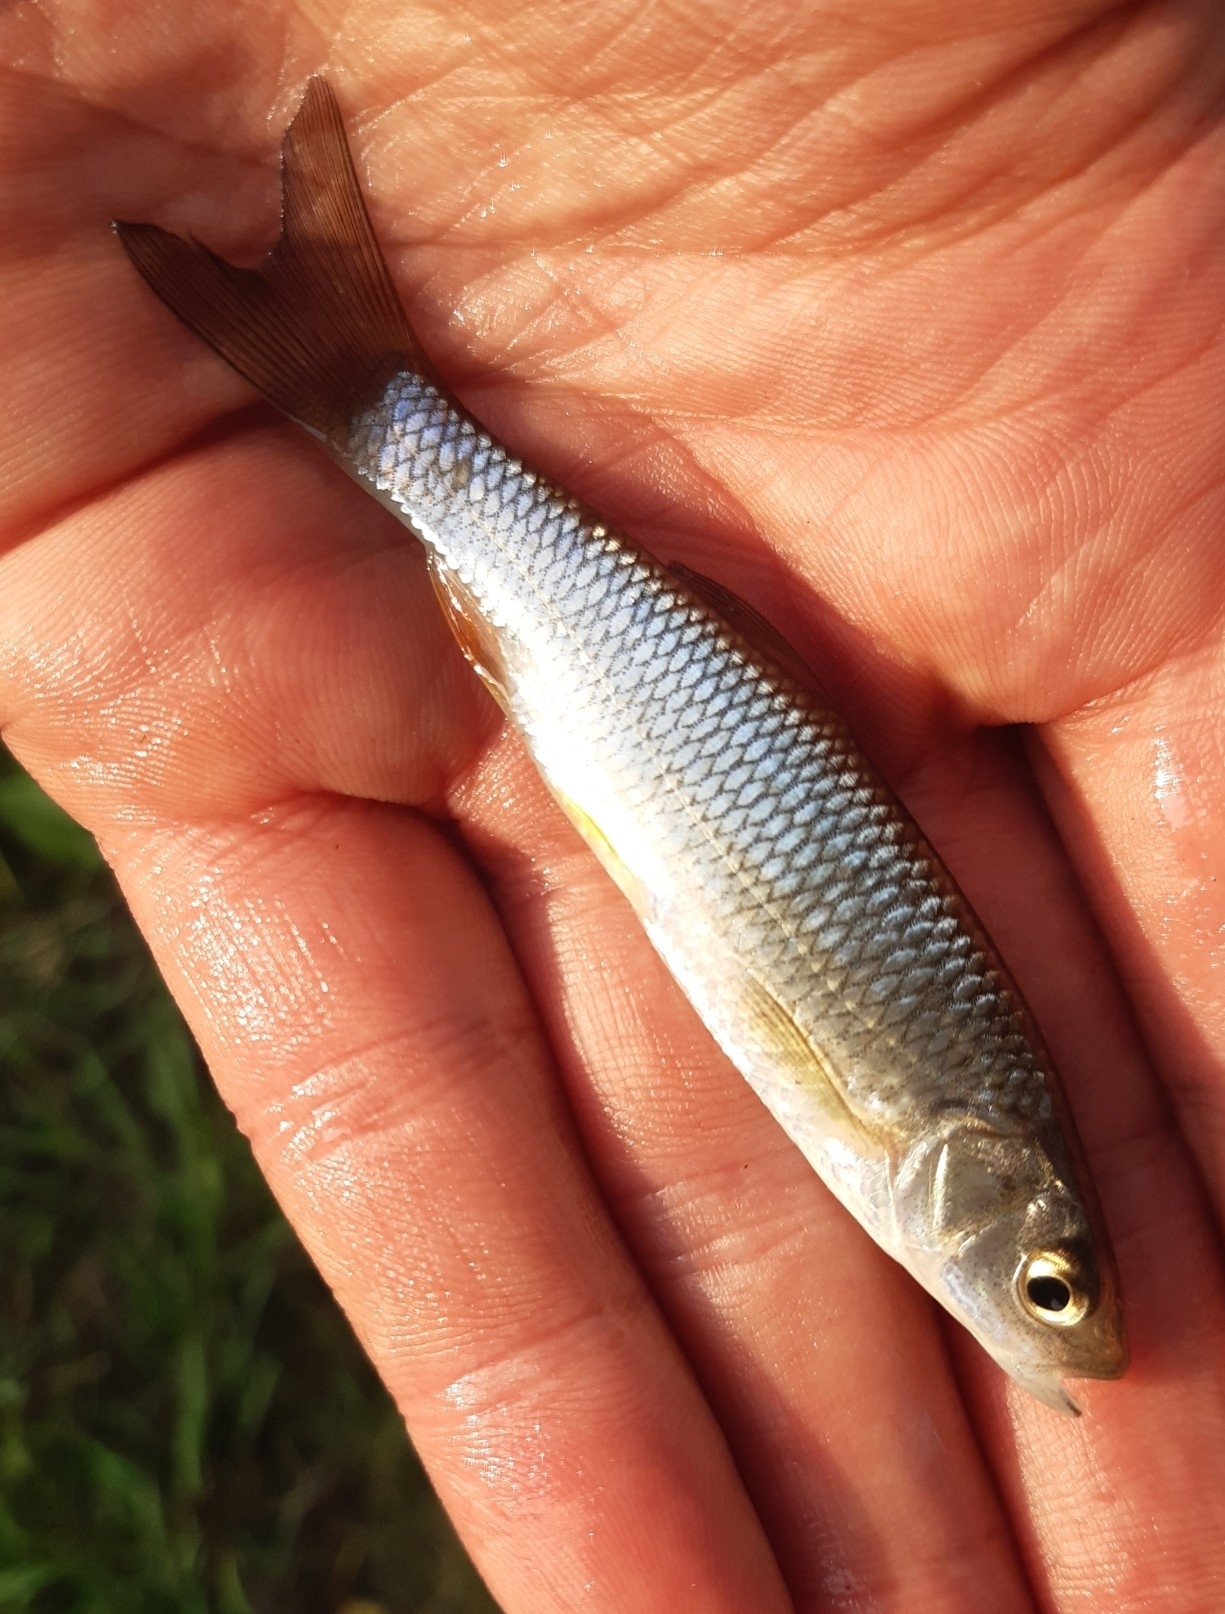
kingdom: Animalia
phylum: Chordata
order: Cypriniformes
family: Cyprinidae
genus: Squalius
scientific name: Squalius cephalus
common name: Chub
